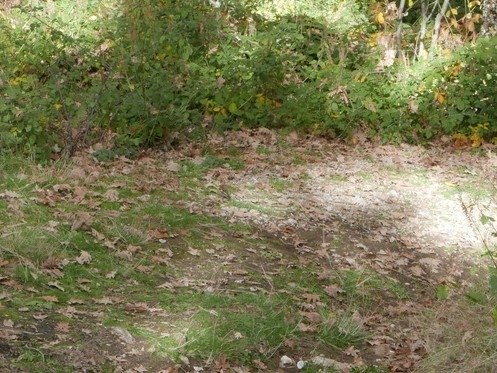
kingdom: Animalia
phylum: Chordata
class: Aves
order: Passeriformes
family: Fringillidae
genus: Fringilla
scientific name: Fringilla coelebs
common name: Common chaffinch
